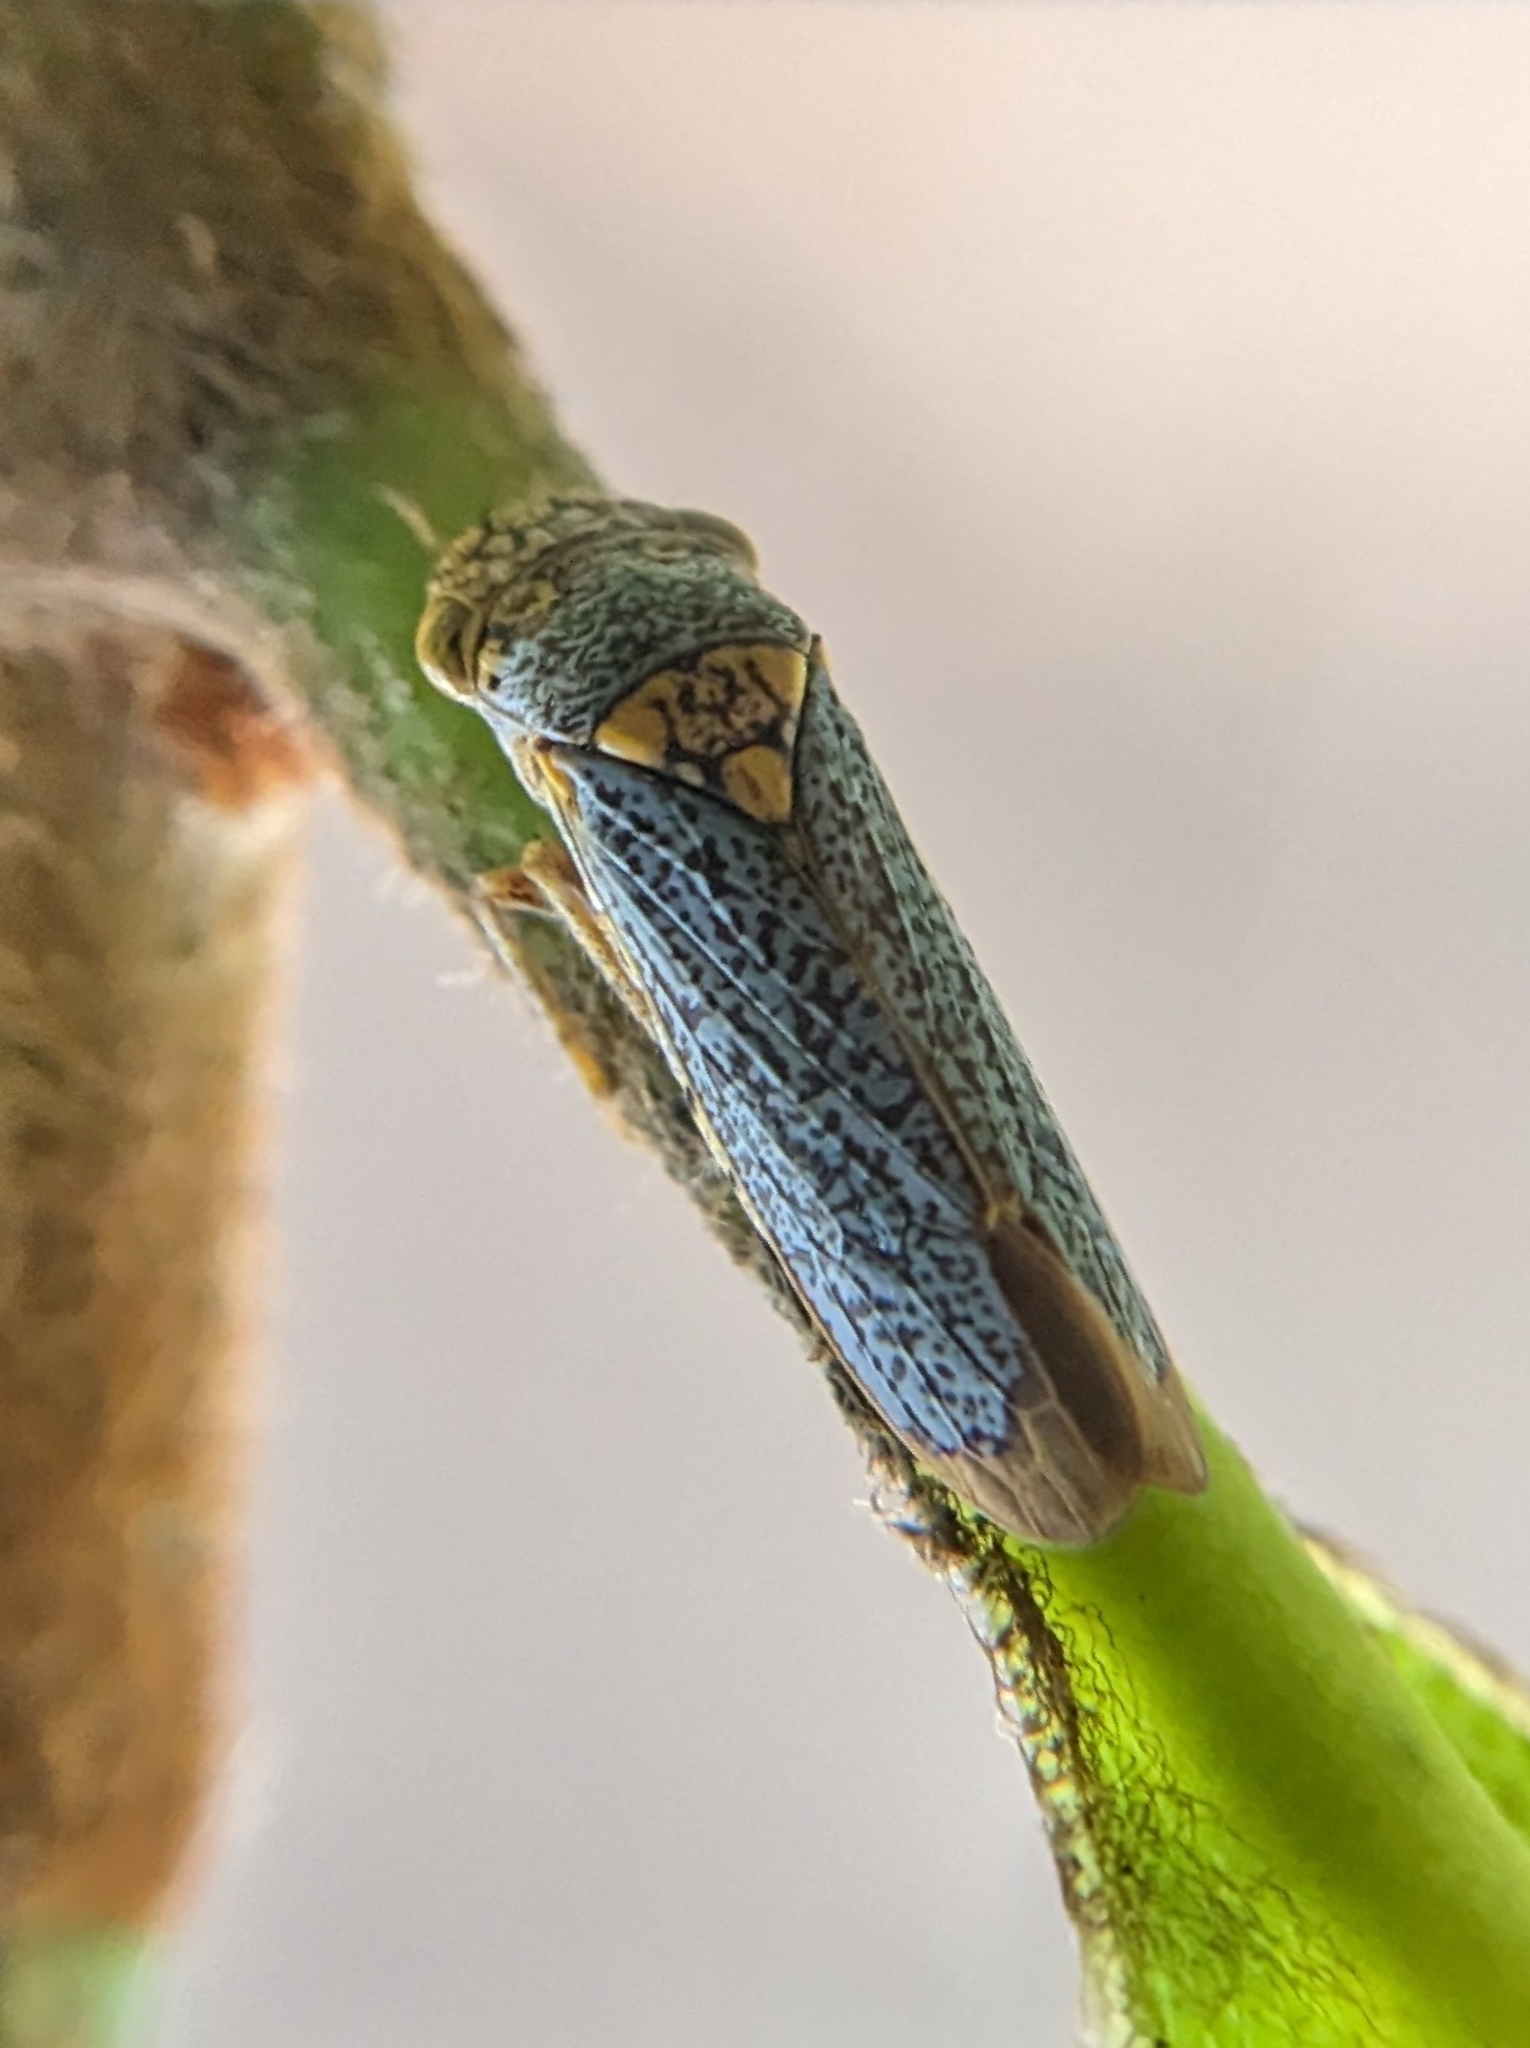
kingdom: Animalia
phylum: Arthropoda
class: Insecta
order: Hemiptera
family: Cicadellidae
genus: Oncometopia
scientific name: Oncometopia orbona
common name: Broad-headed sharpshooter
